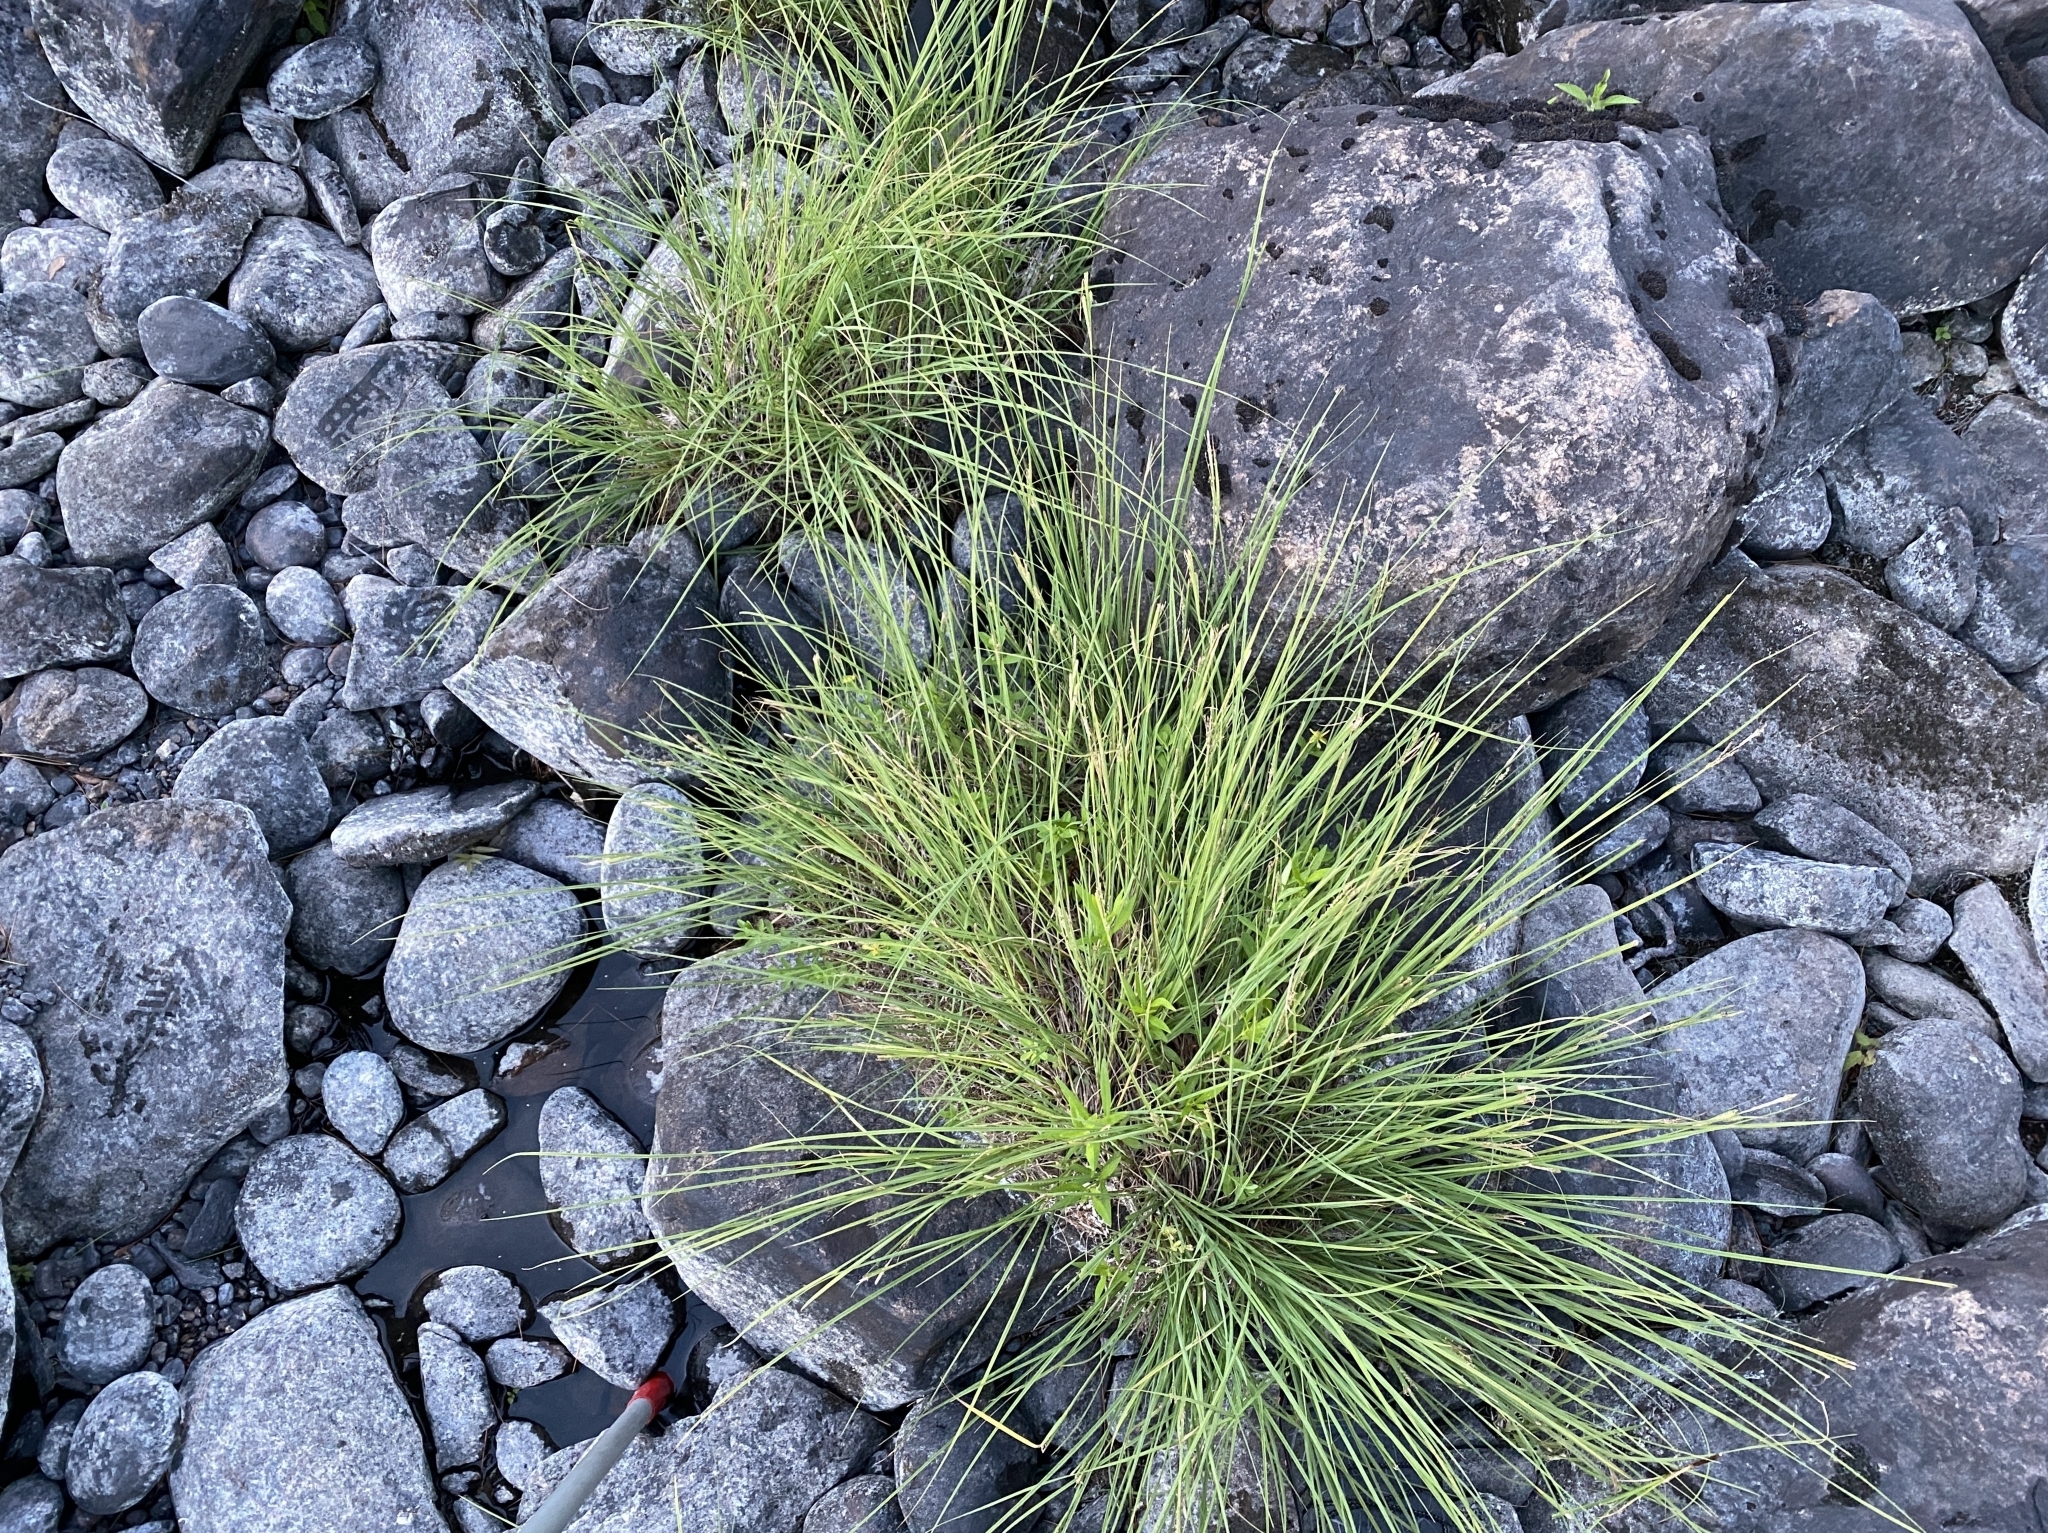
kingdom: Plantae
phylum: Tracheophyta
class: Liliopsida
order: Poales
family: Cyperaceae
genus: Carex
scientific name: Carex lenticularis
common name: Lakeshore sedge
